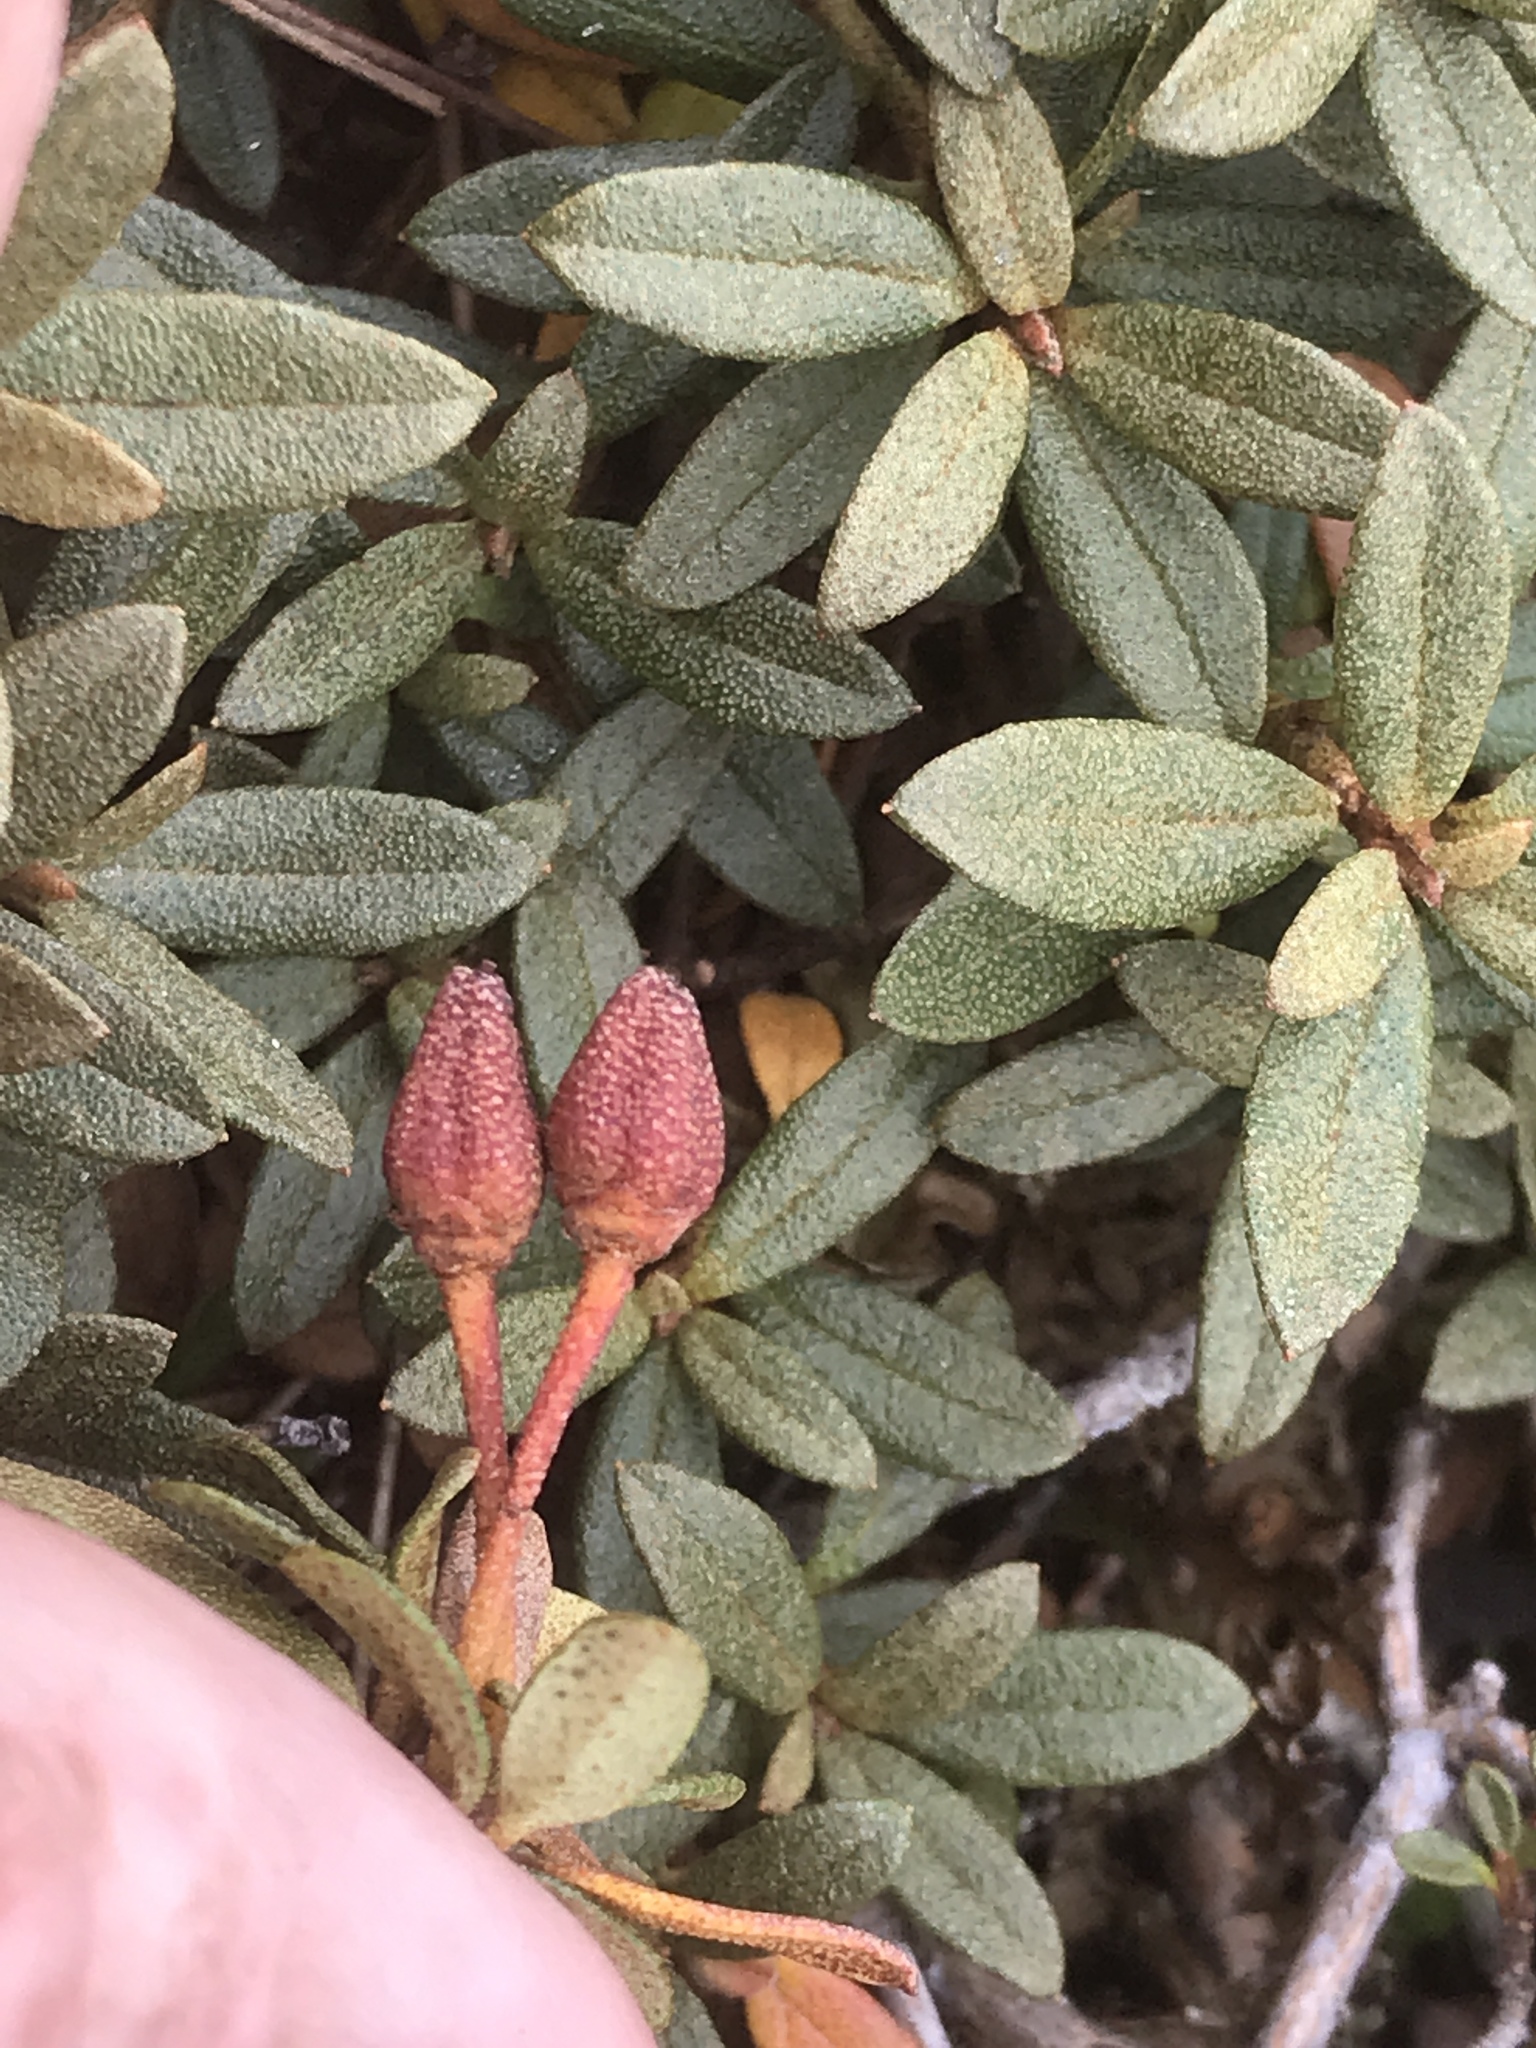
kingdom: Plantae
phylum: Tracheophyta
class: Magnoliopsida
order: Ericales
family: Ericaceae
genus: Rhododendron
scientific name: Rhododendron lapponicum
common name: Lapland rhododendron
